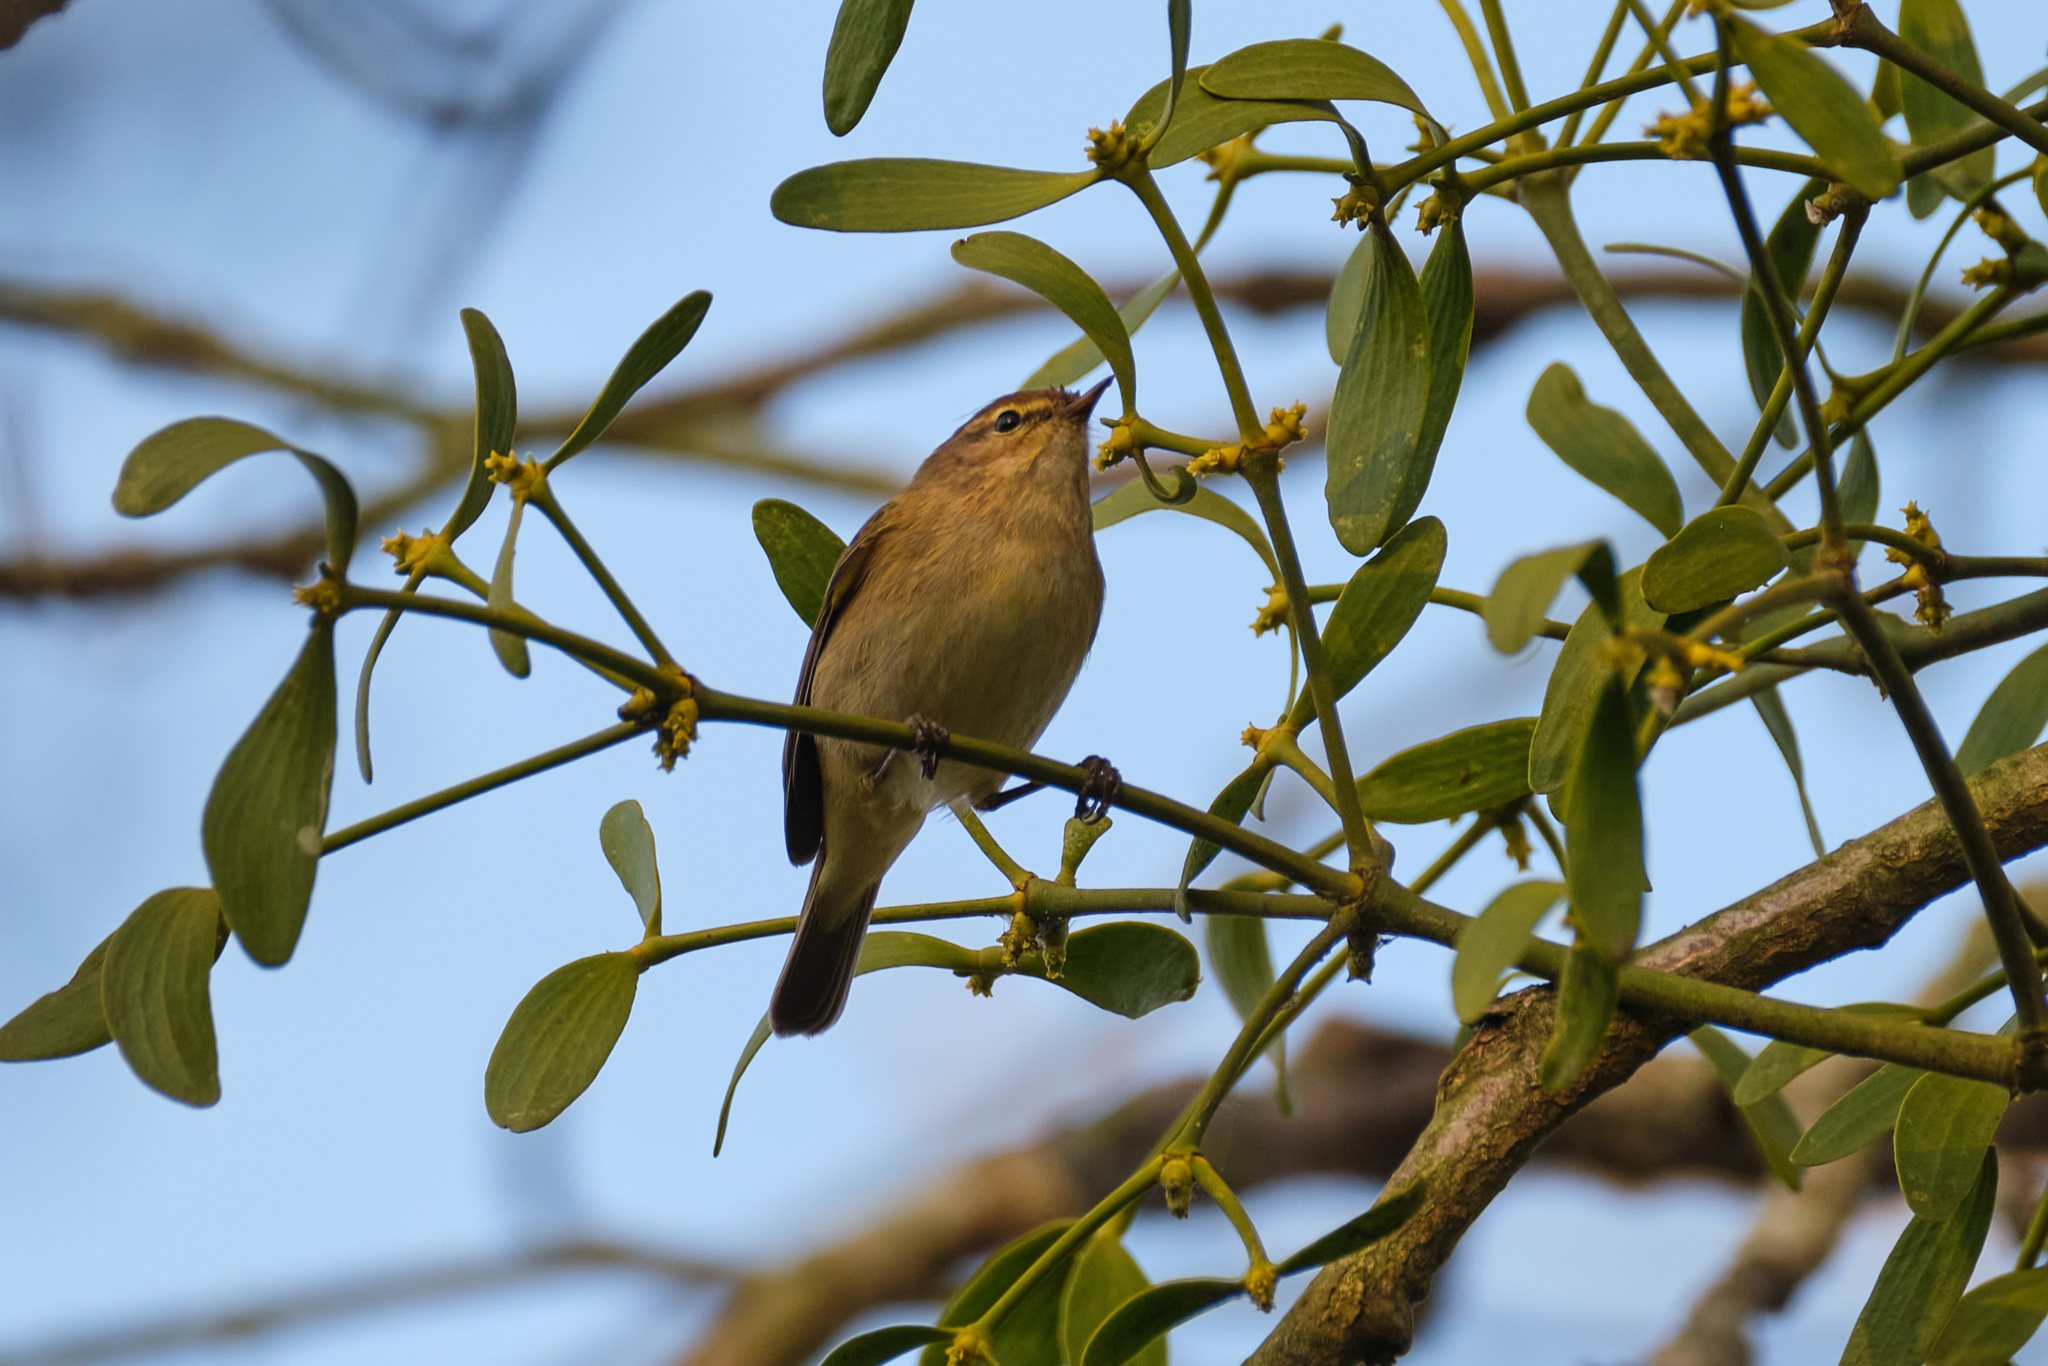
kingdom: Animalia
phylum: Chordata
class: Aves
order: Passeriformes
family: Phylloscopidae
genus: Phylloscopus
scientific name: Phylloscopus collybita
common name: Common chiffchaff
